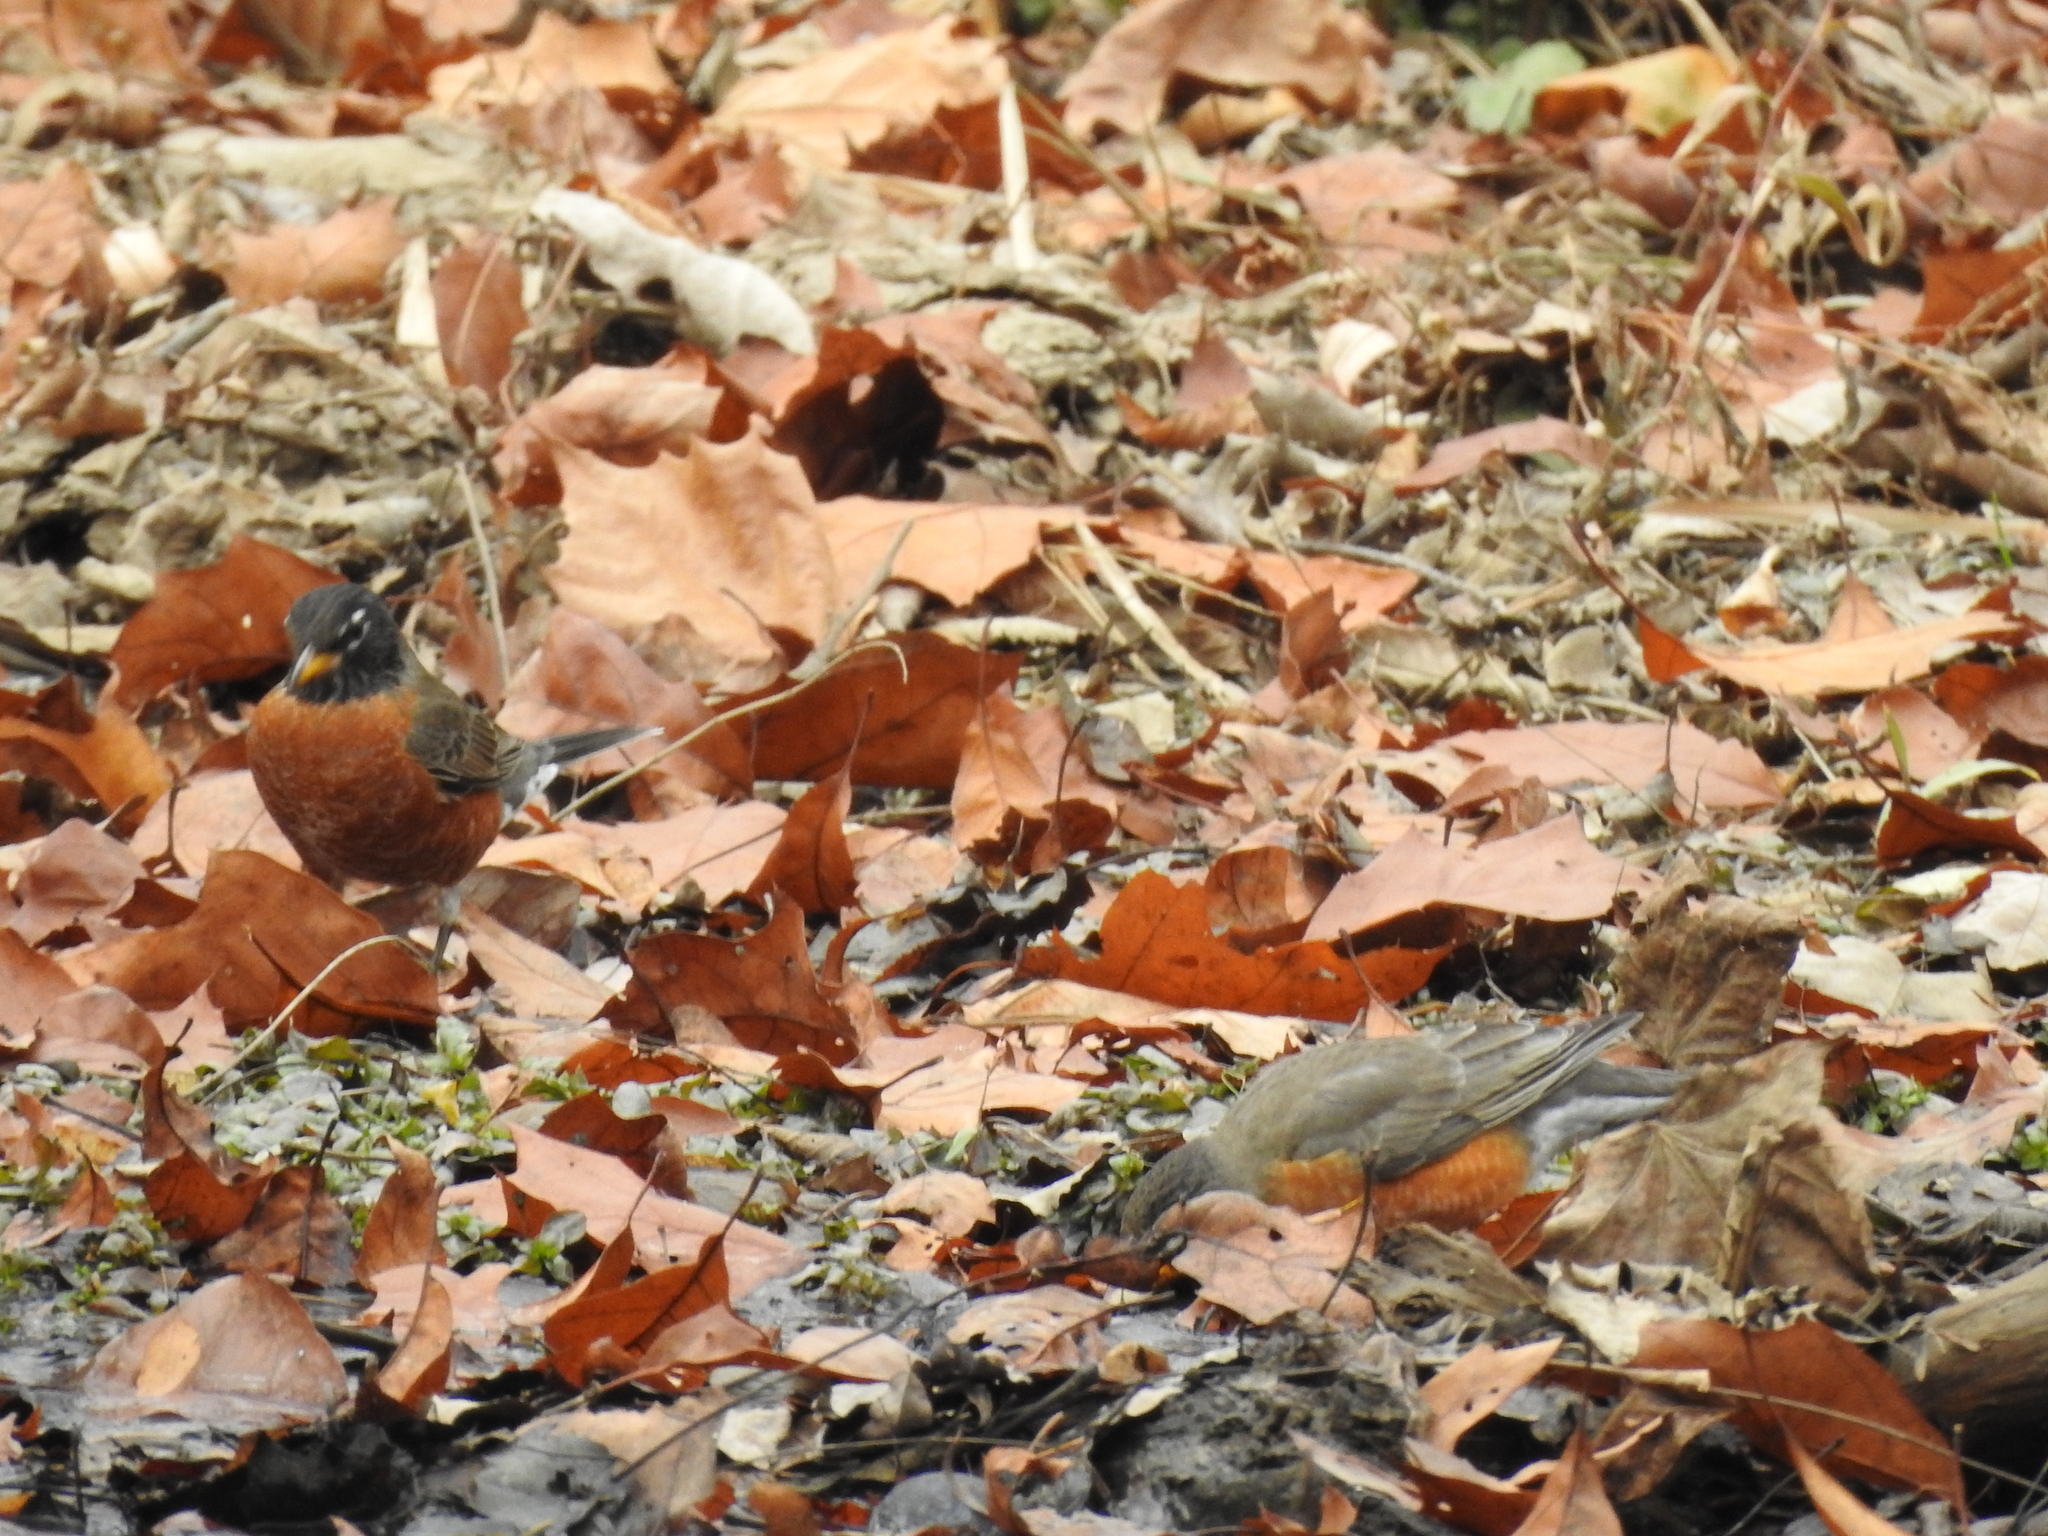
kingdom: Animalia
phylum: Chordata
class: Aves
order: Passeriformes
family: Turdidae
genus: Turdus
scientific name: Turdus migratorius
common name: American robin
